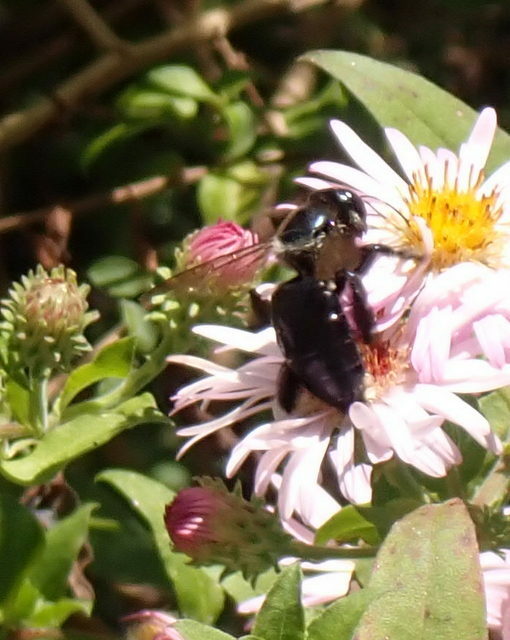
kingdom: Animalia
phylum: Arthropoda
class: Insecta
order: Hymenoptera
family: Apidae
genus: Xylocopa
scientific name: Xylocopa micans
